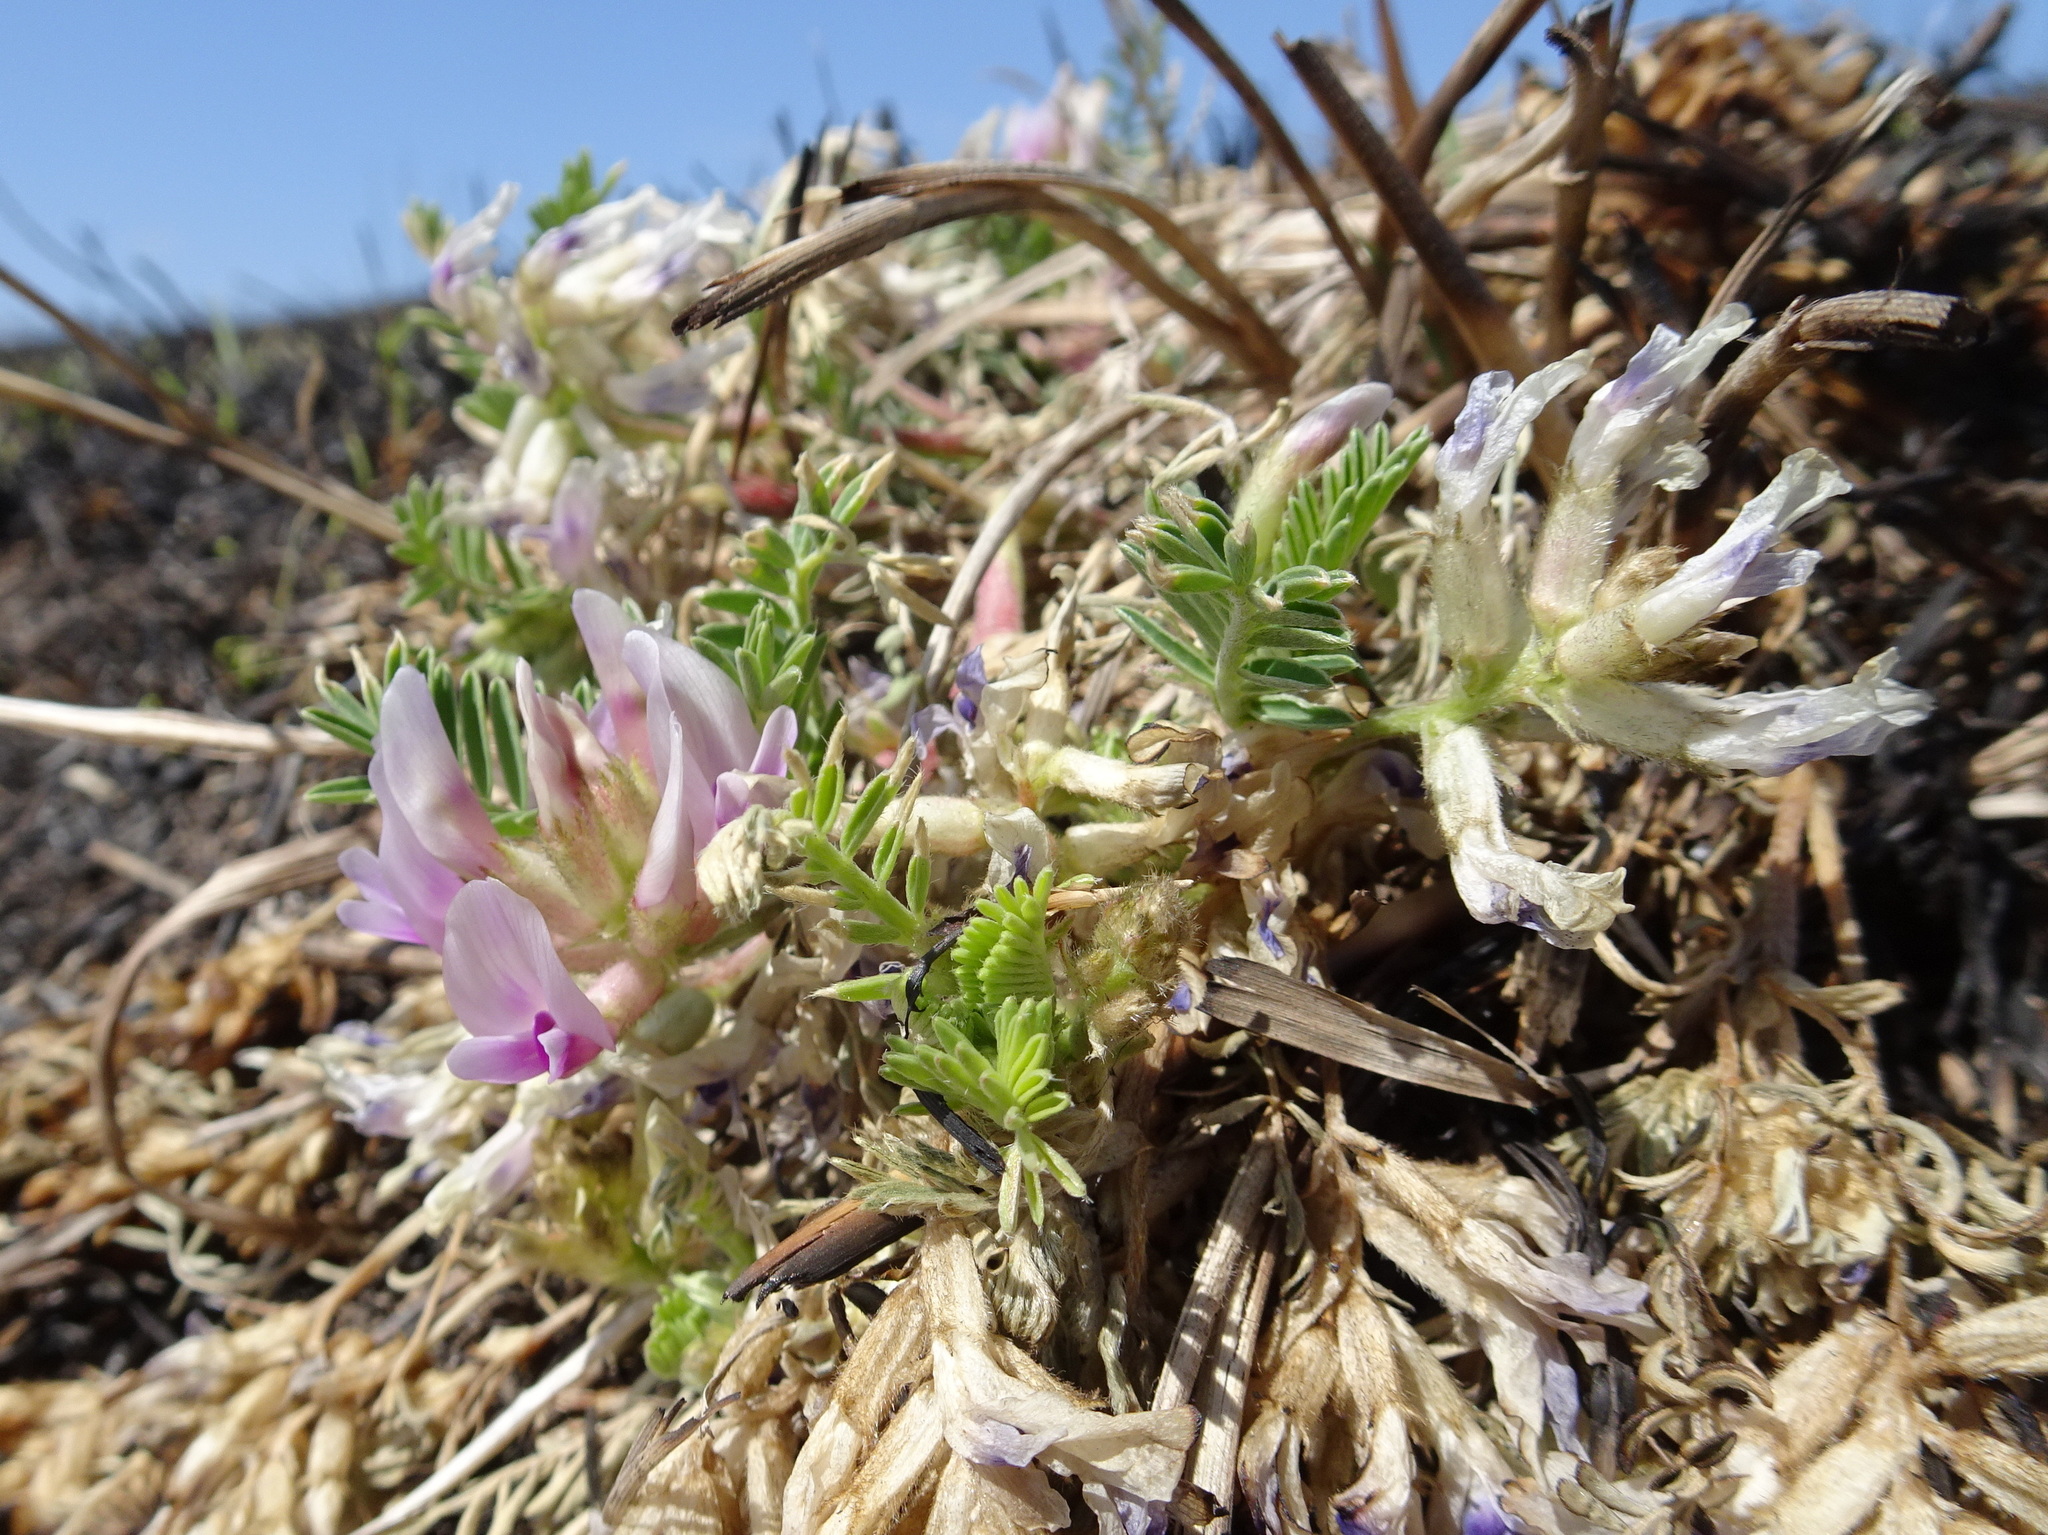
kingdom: Plantae
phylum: Tracheophyta
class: Magnoliopsida
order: Fabales
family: Fabaceae
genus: Astragalus
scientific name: Astragalus crassicarpus
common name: Ground-plum milk-vetch
